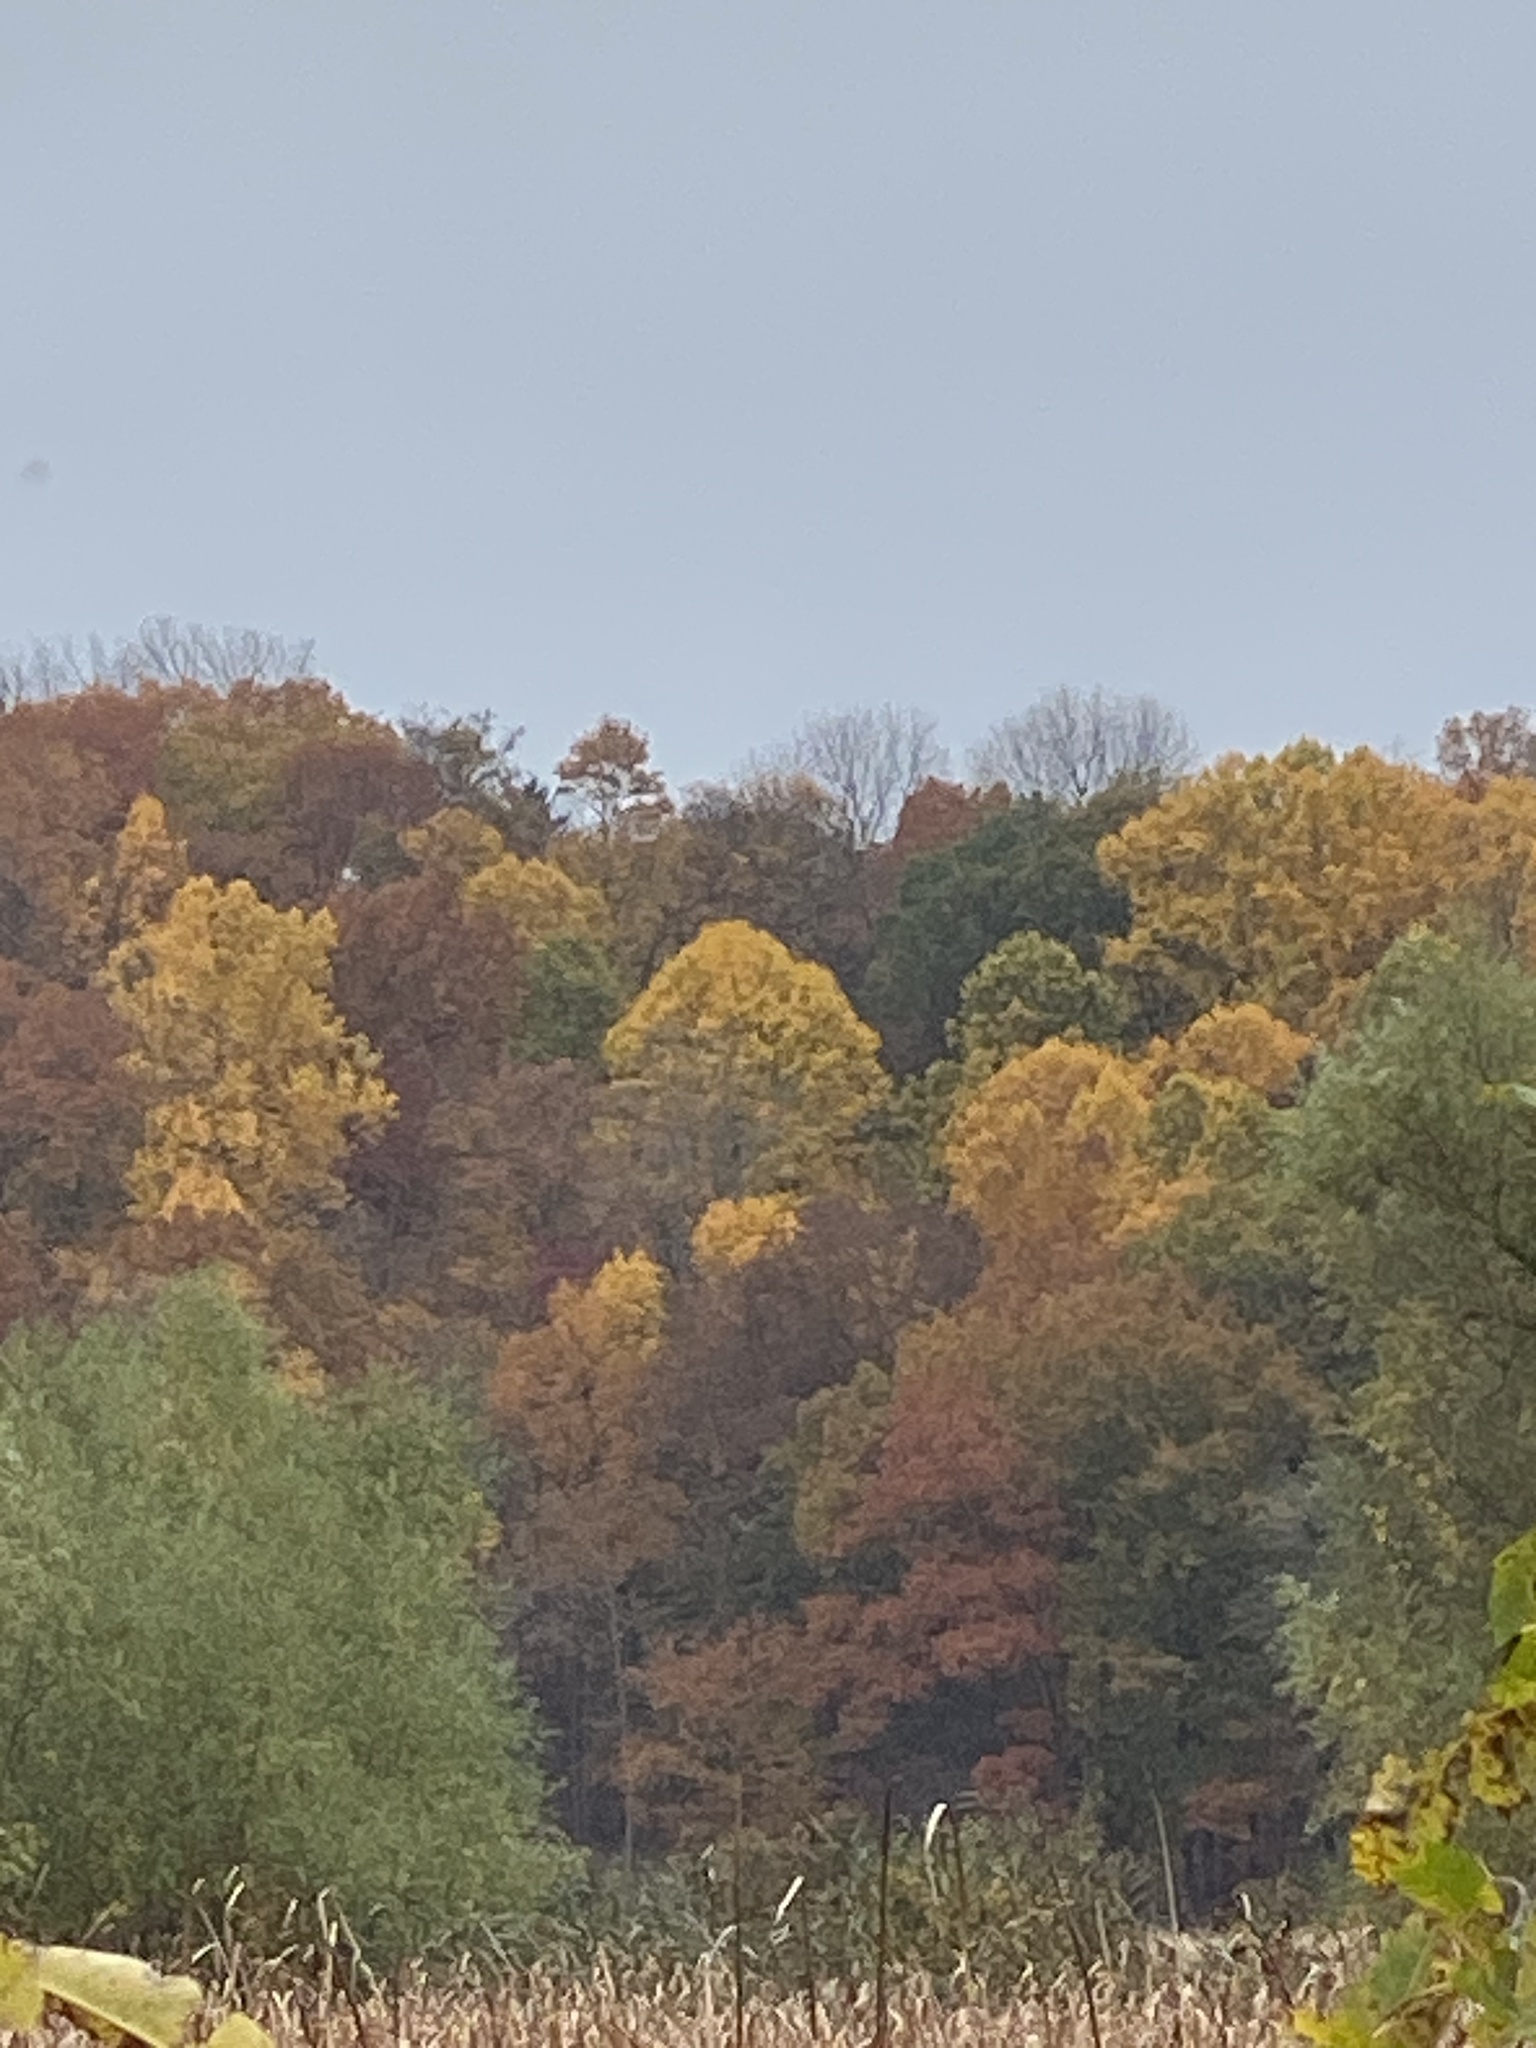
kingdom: Plantae
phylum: Tracheophyta
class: Magnoliopsida
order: Ranunculales
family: Ranunculaceae
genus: Ranunculus
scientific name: Ranunculus repens
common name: Creeping buttercup
